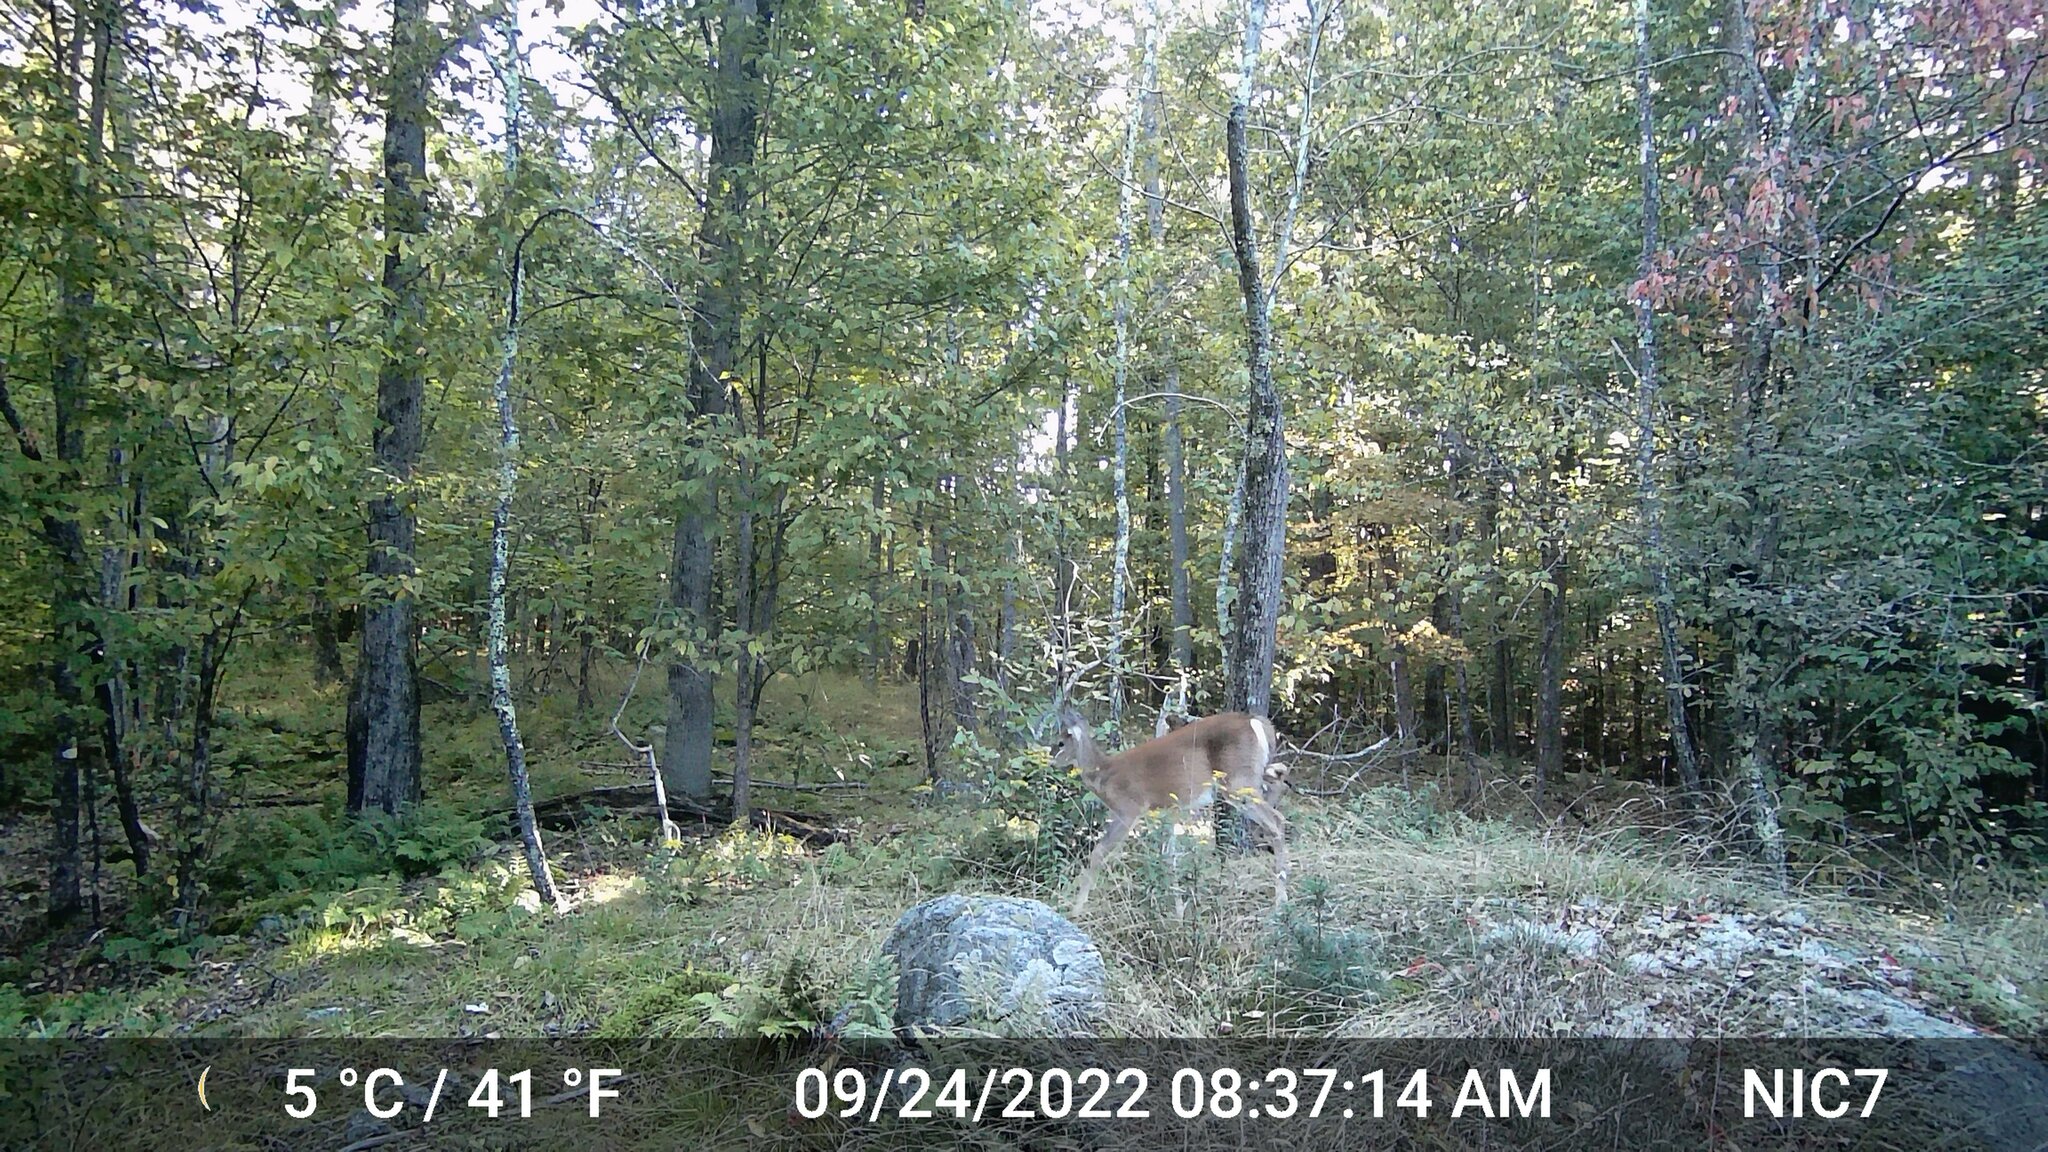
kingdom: Animalia
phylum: Chordata
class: Mammalia
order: Artiodactyla
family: Cervidae
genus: Odocoileus
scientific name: Odocoileus virginianus
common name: White-tailed deer
